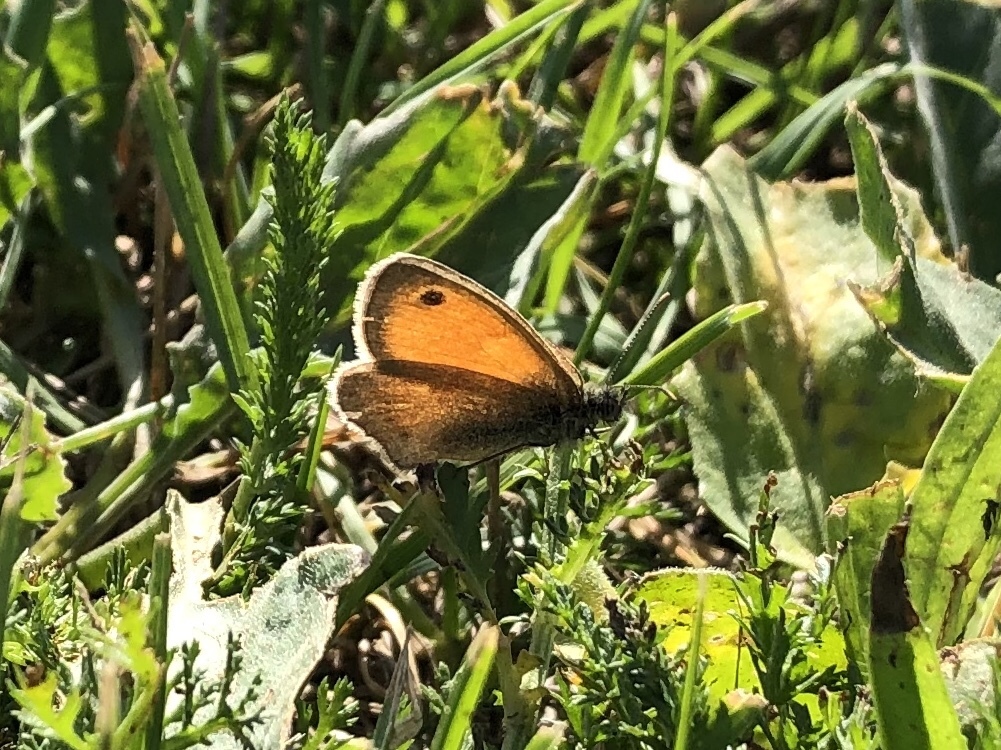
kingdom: Animalia
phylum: Arthropoda
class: Insecta
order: Lepidoptera
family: Nymphalidae
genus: Coenonympha
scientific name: Coenonympha pamphilus
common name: Small heath
